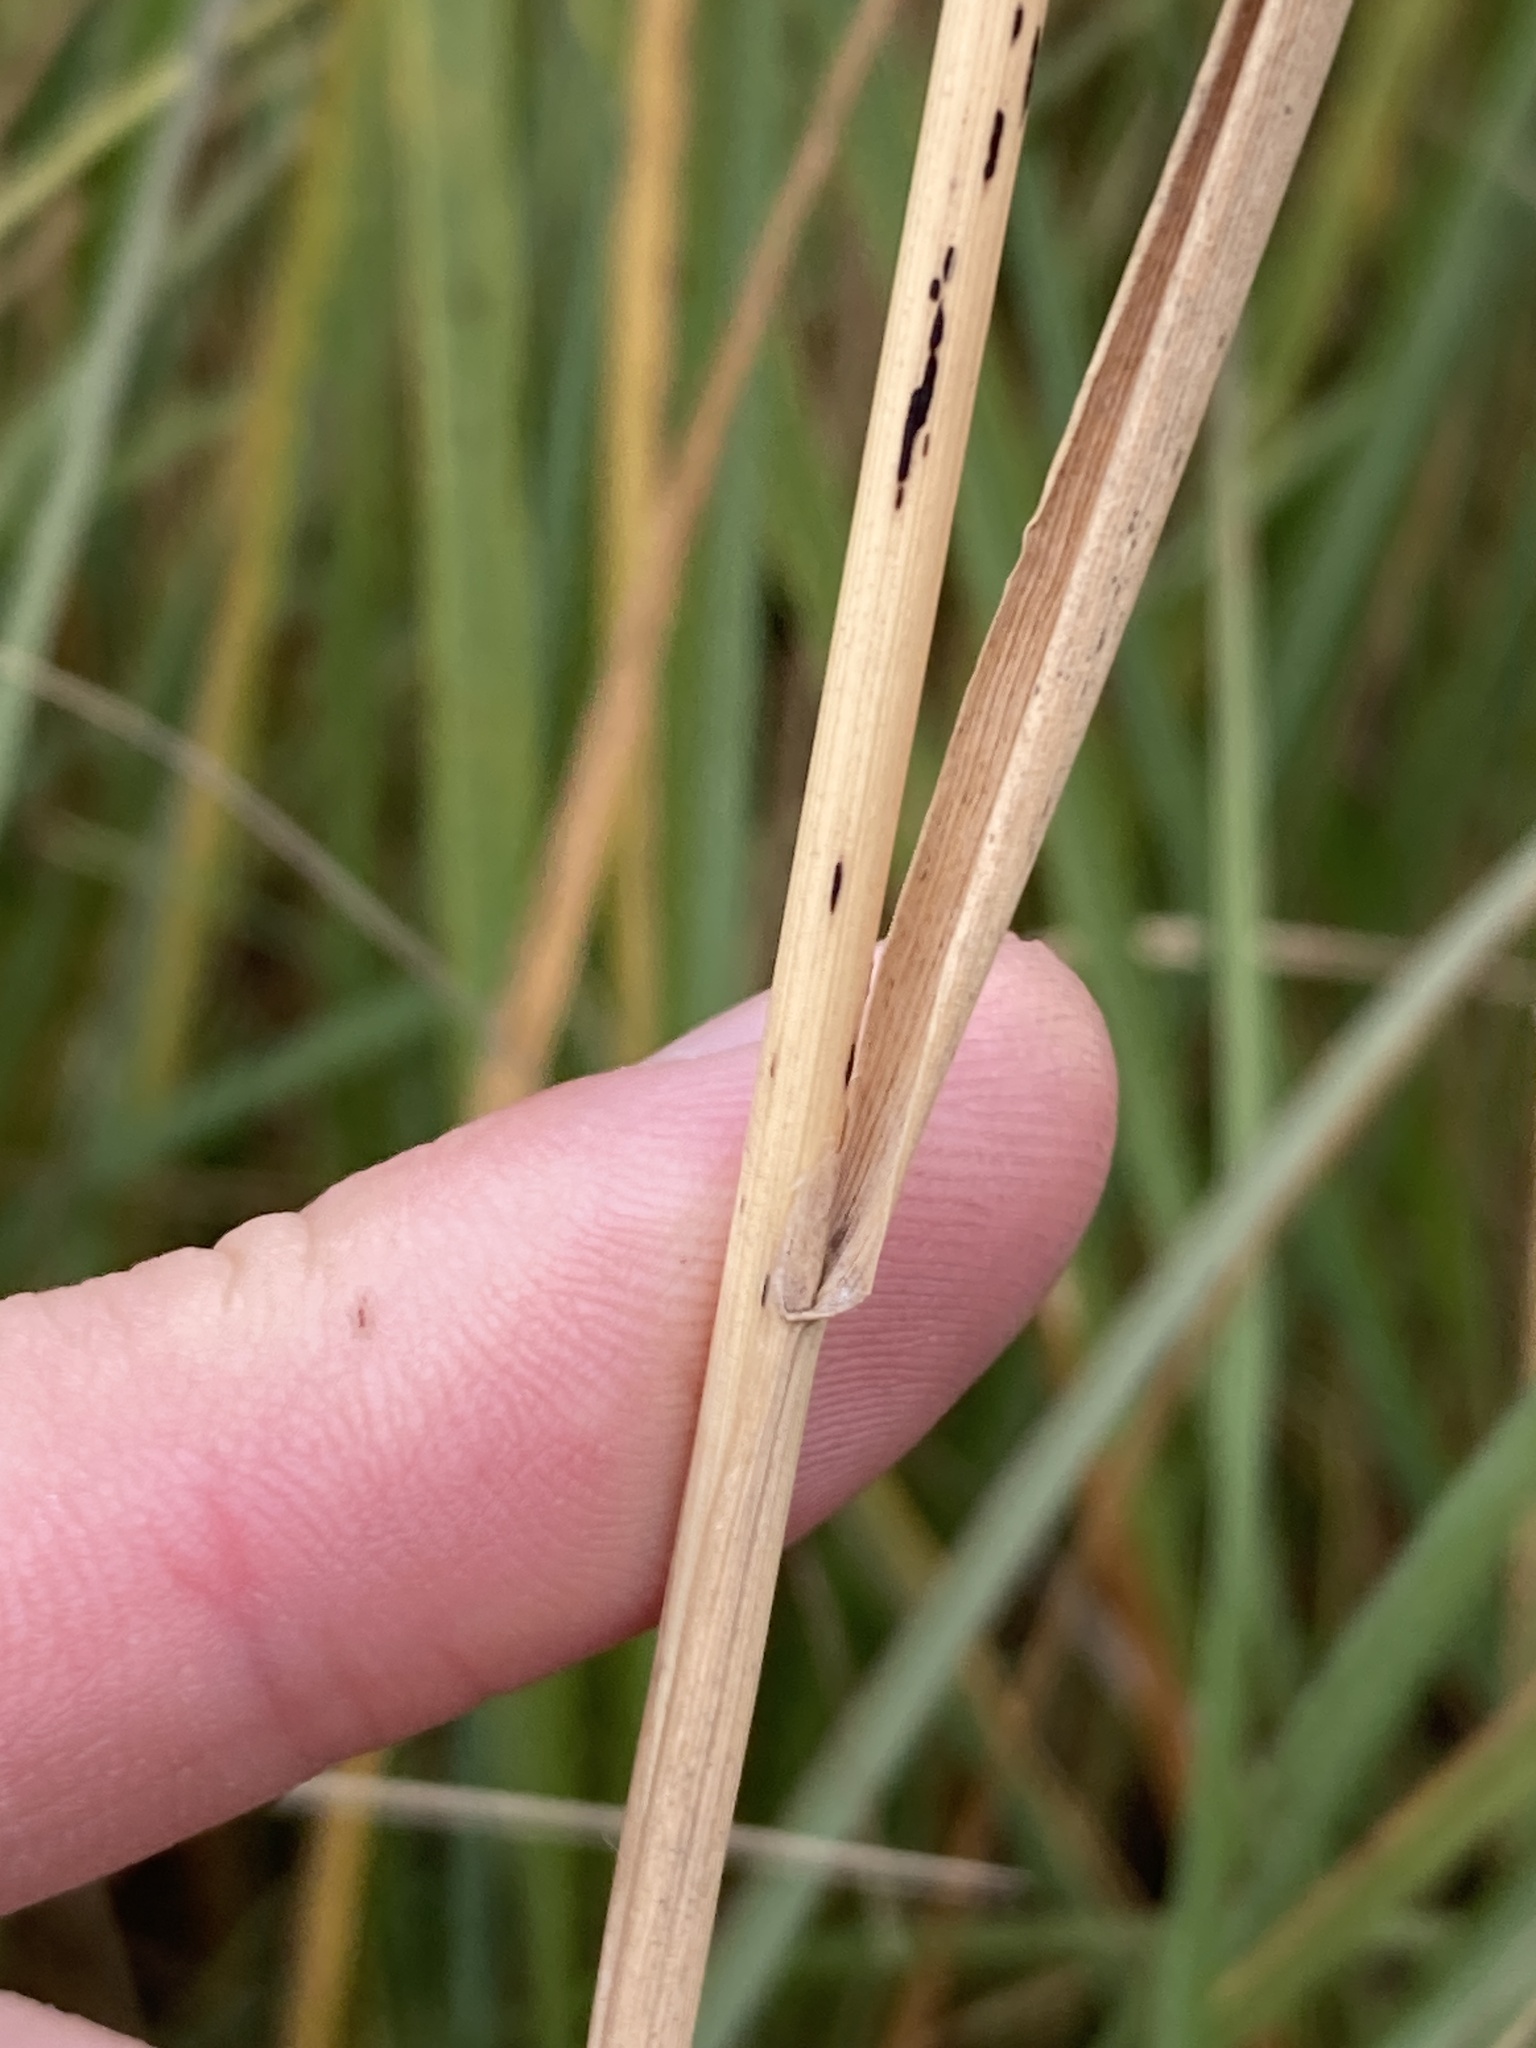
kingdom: Plantae
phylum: Tracheophyta
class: Liliopsida
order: Poales
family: Poaceae
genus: Calamagrostis
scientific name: Calamagrostis epigejos
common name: Wood small-reed
